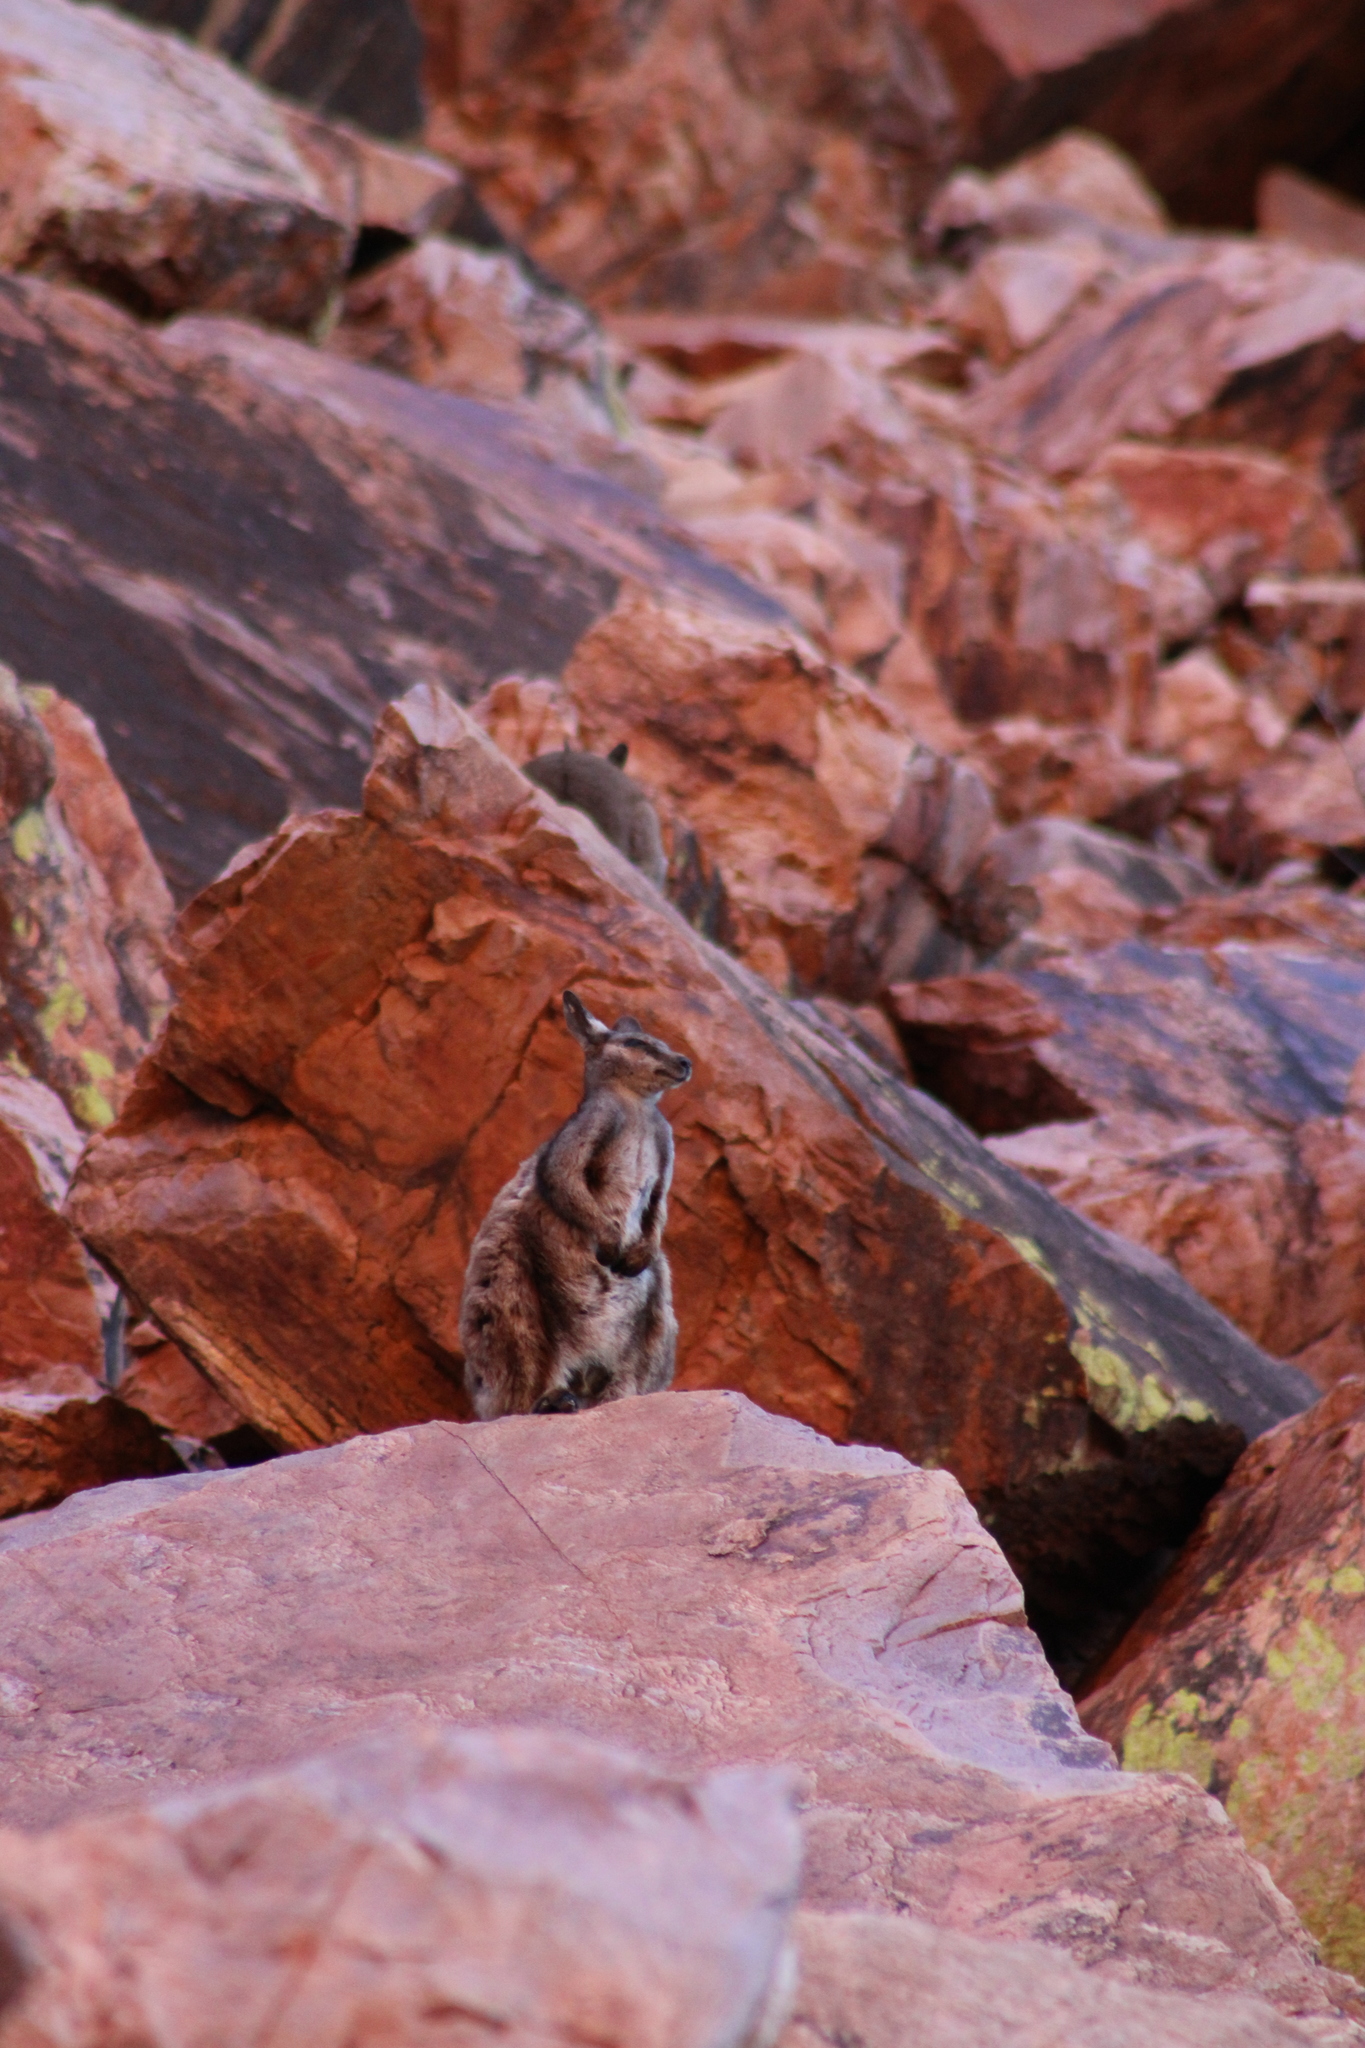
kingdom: Animalia
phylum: Chordata
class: Mammalia
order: Diprotodontia
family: Macropodidae
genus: Petrogale
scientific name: Petrogale lateralis
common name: Black-flanked rock-wallaby
